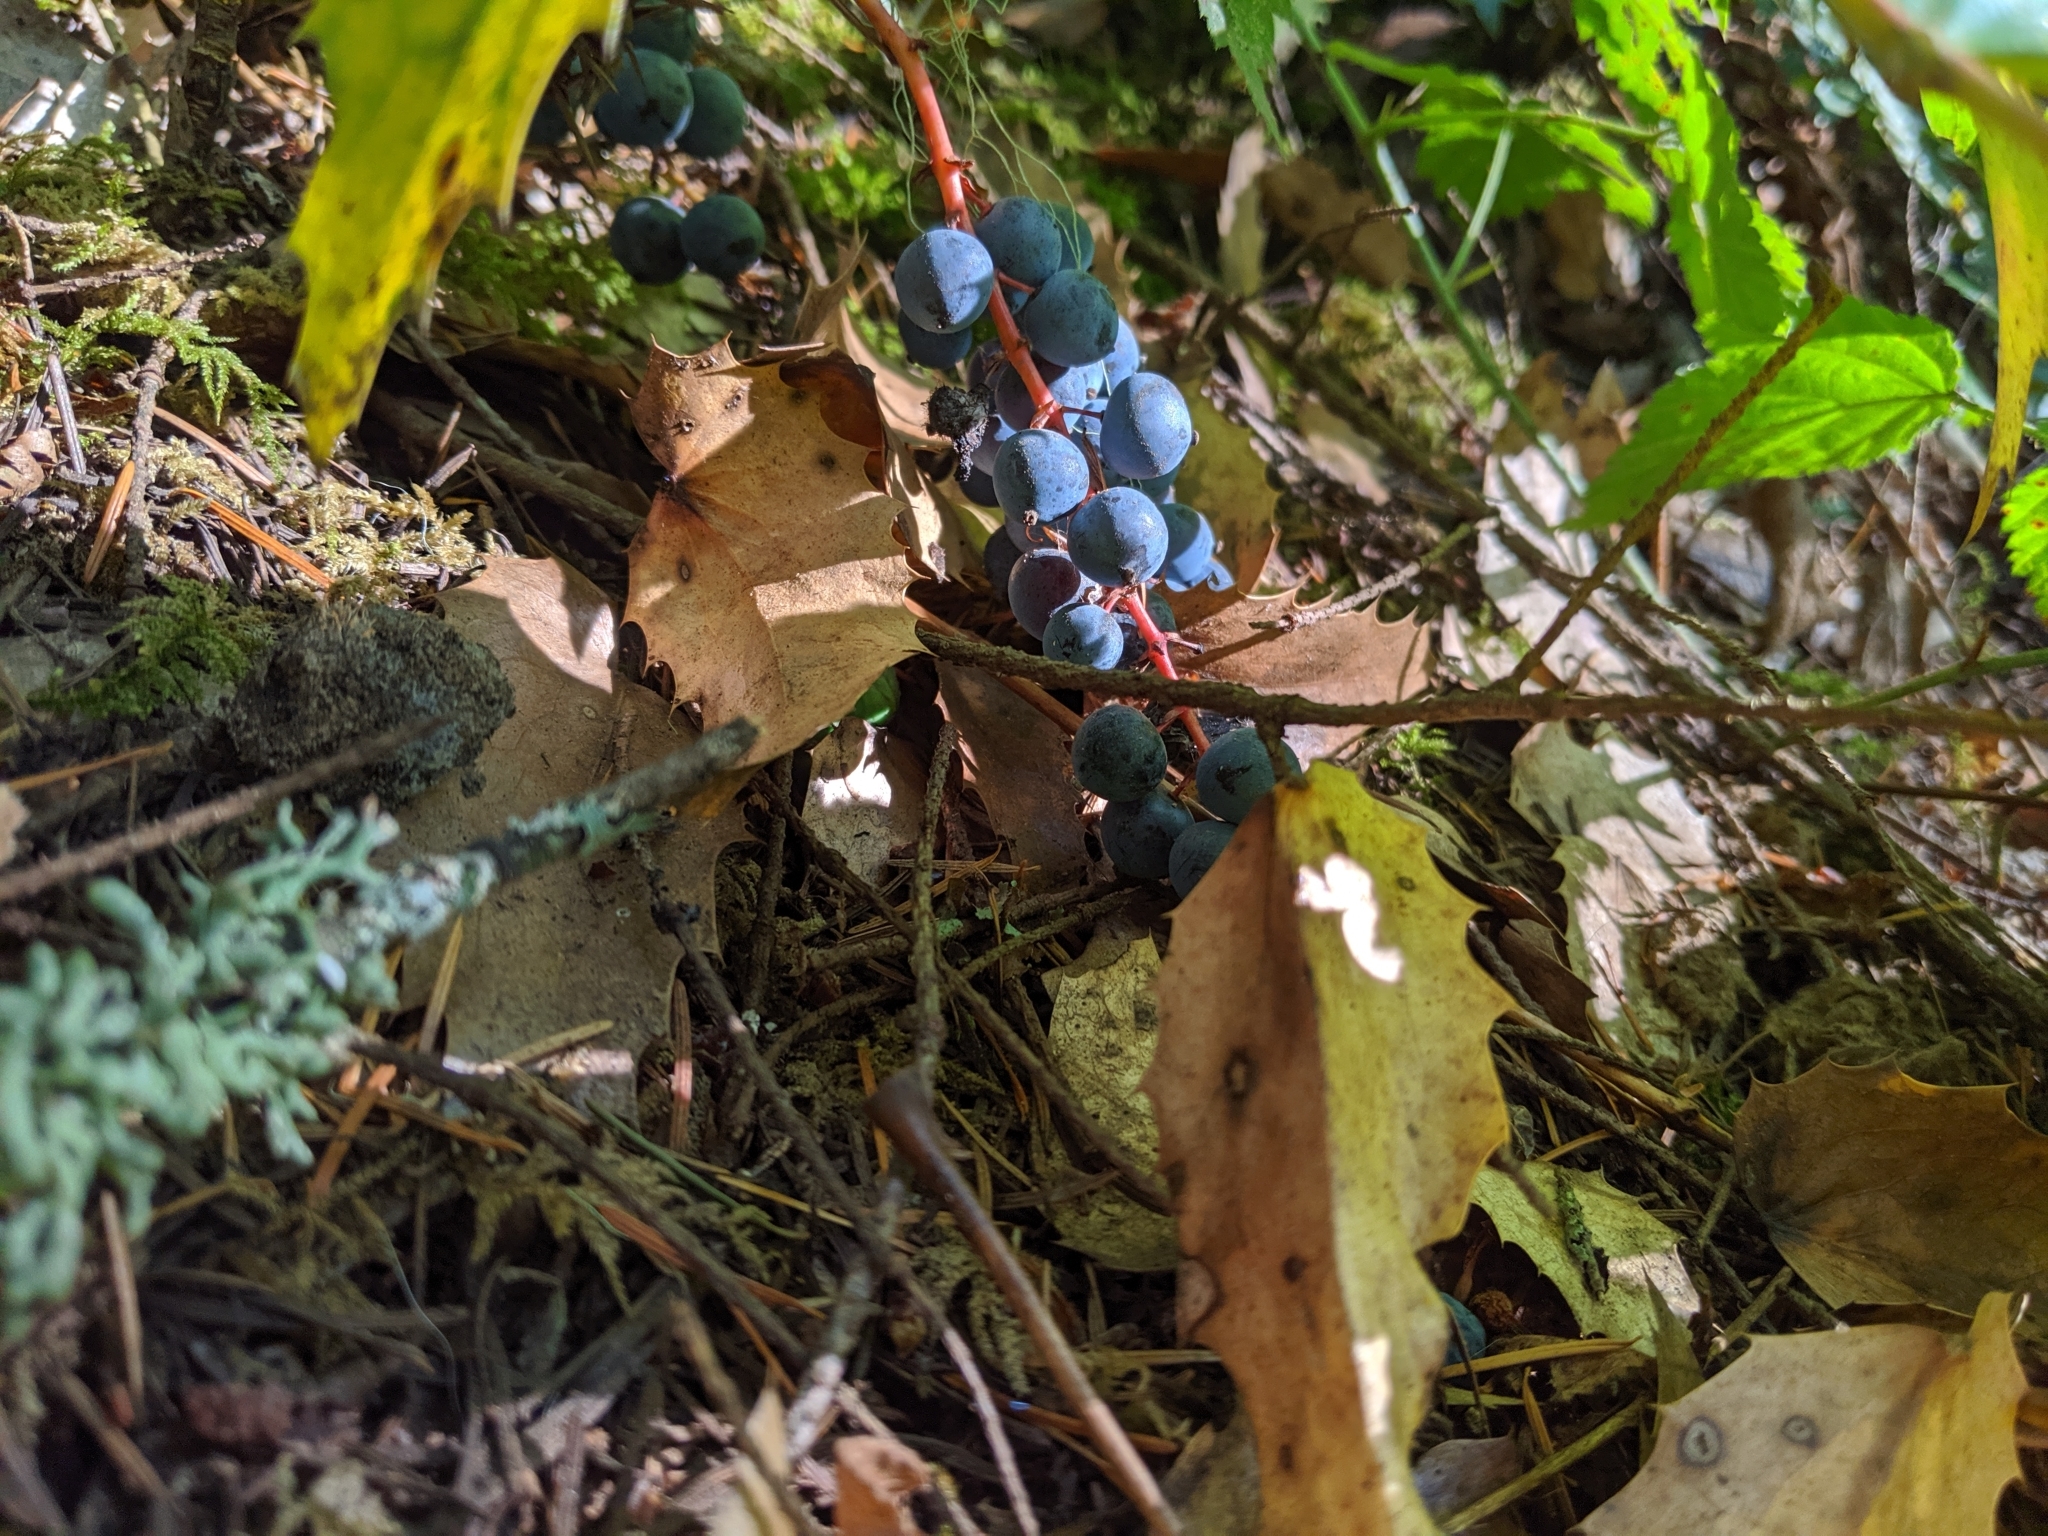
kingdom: Plantae
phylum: Tracheophyta
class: Magnoliopsida
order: Ranunculales
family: Berberidaceae
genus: Mahonia
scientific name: Mahonia nervosa
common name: Cascade oregon-grape
